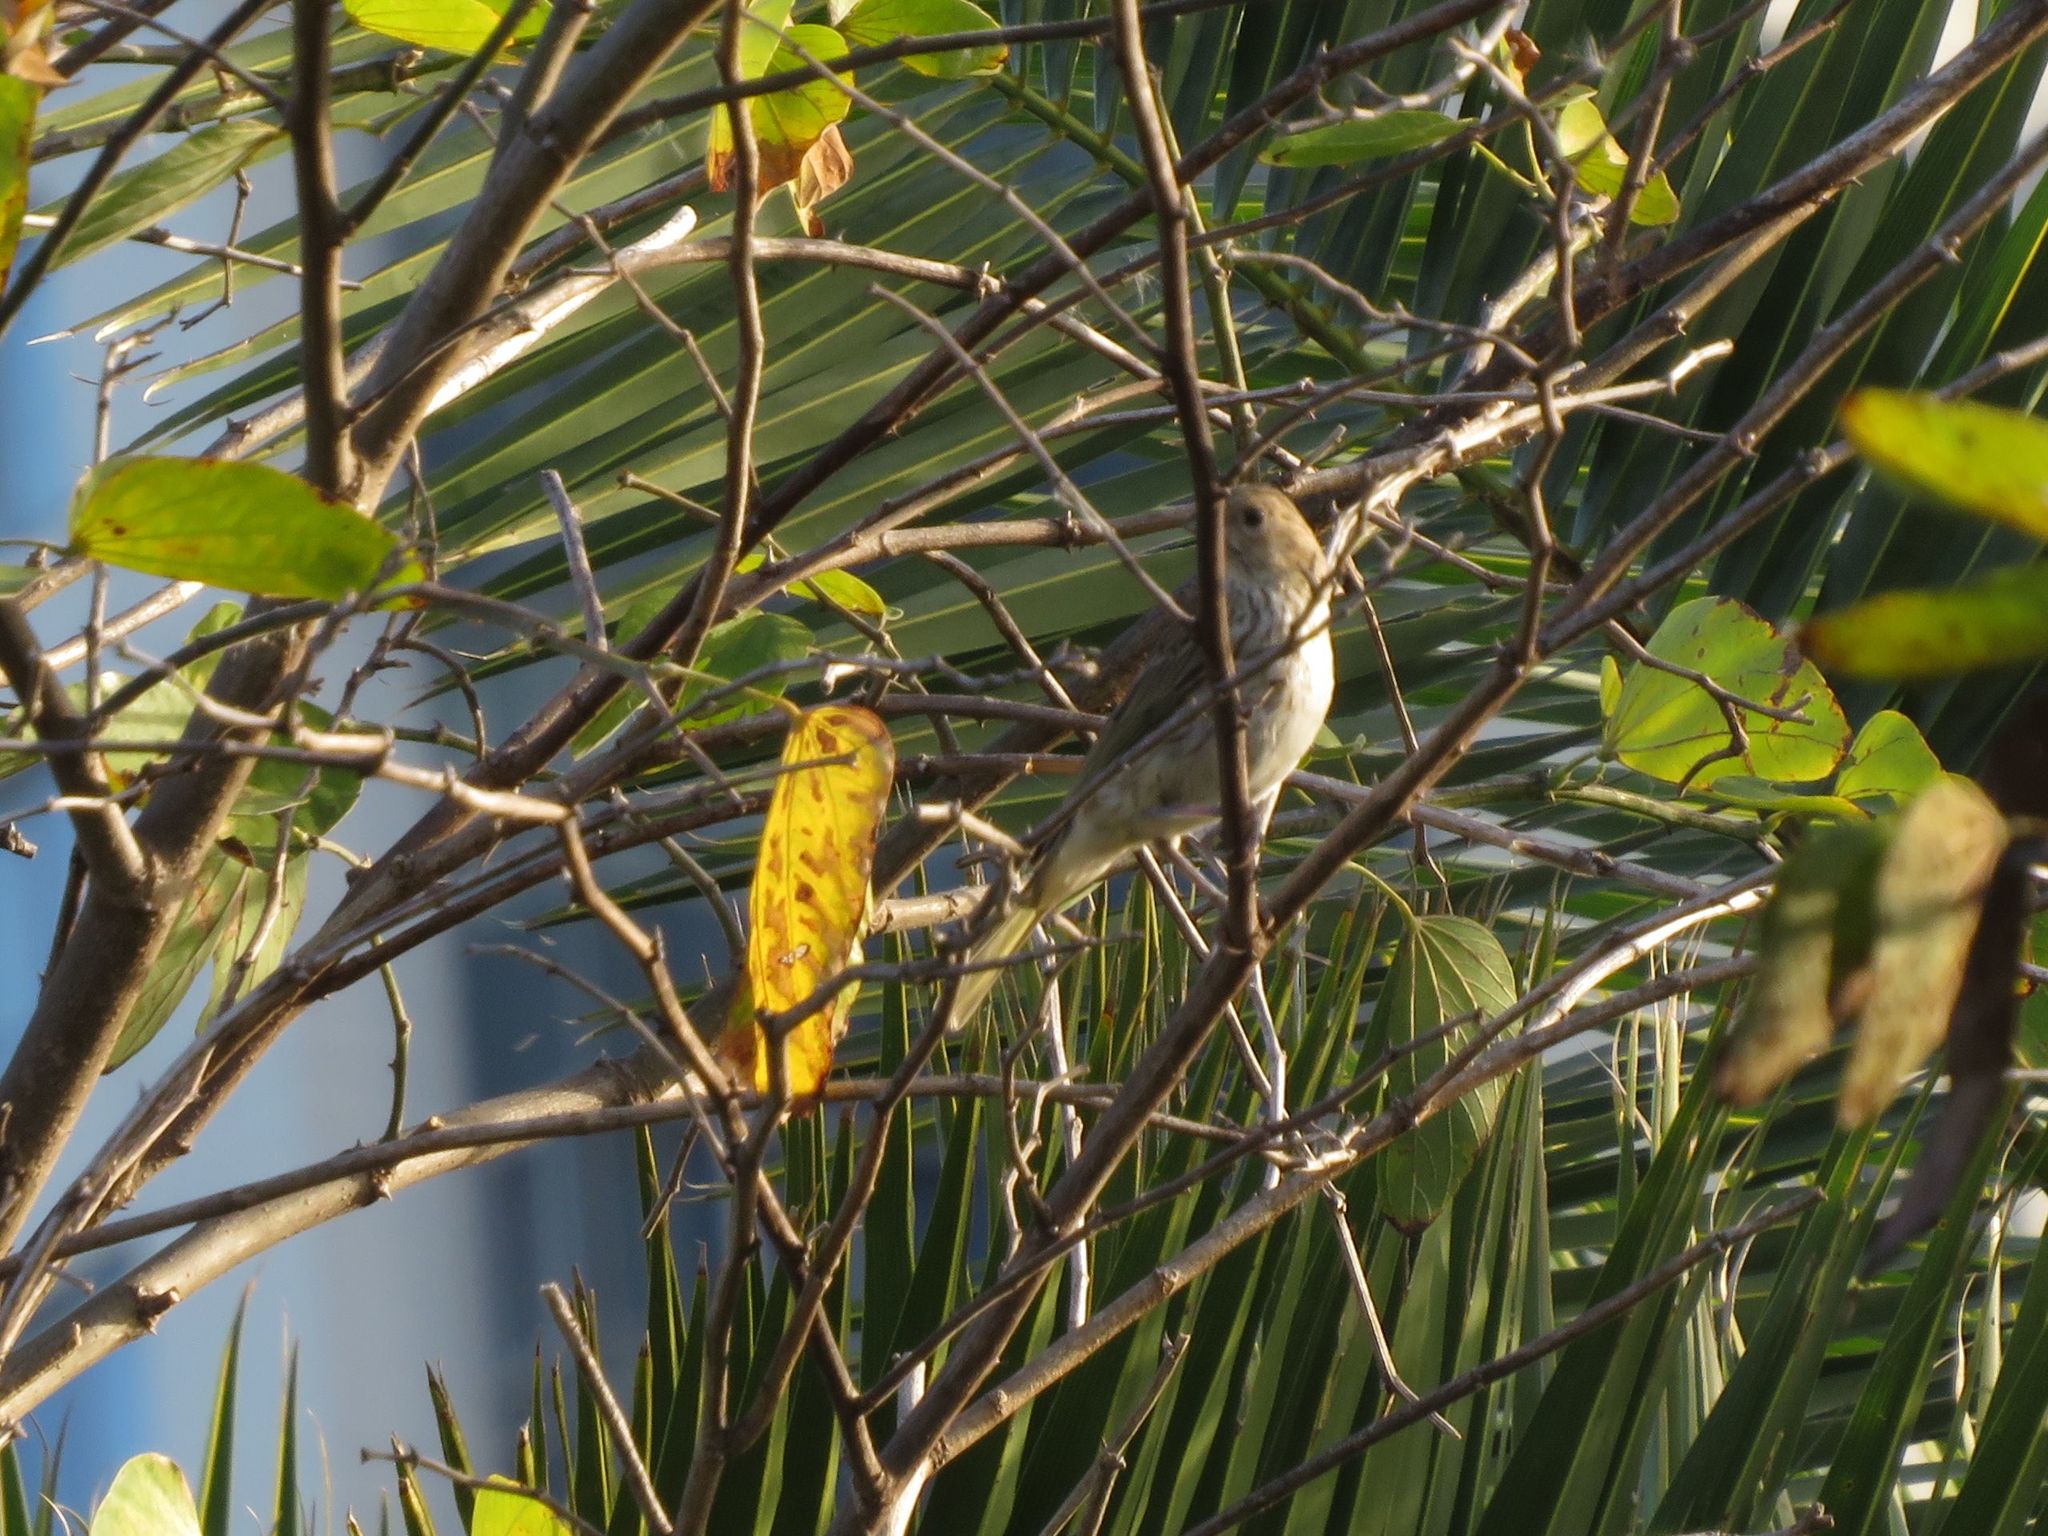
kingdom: Animalia
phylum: Chordata
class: Aves
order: Passeriformes
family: Thraupidae
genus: Sicalis
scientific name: Sicalis flaveola
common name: Saffron finch
